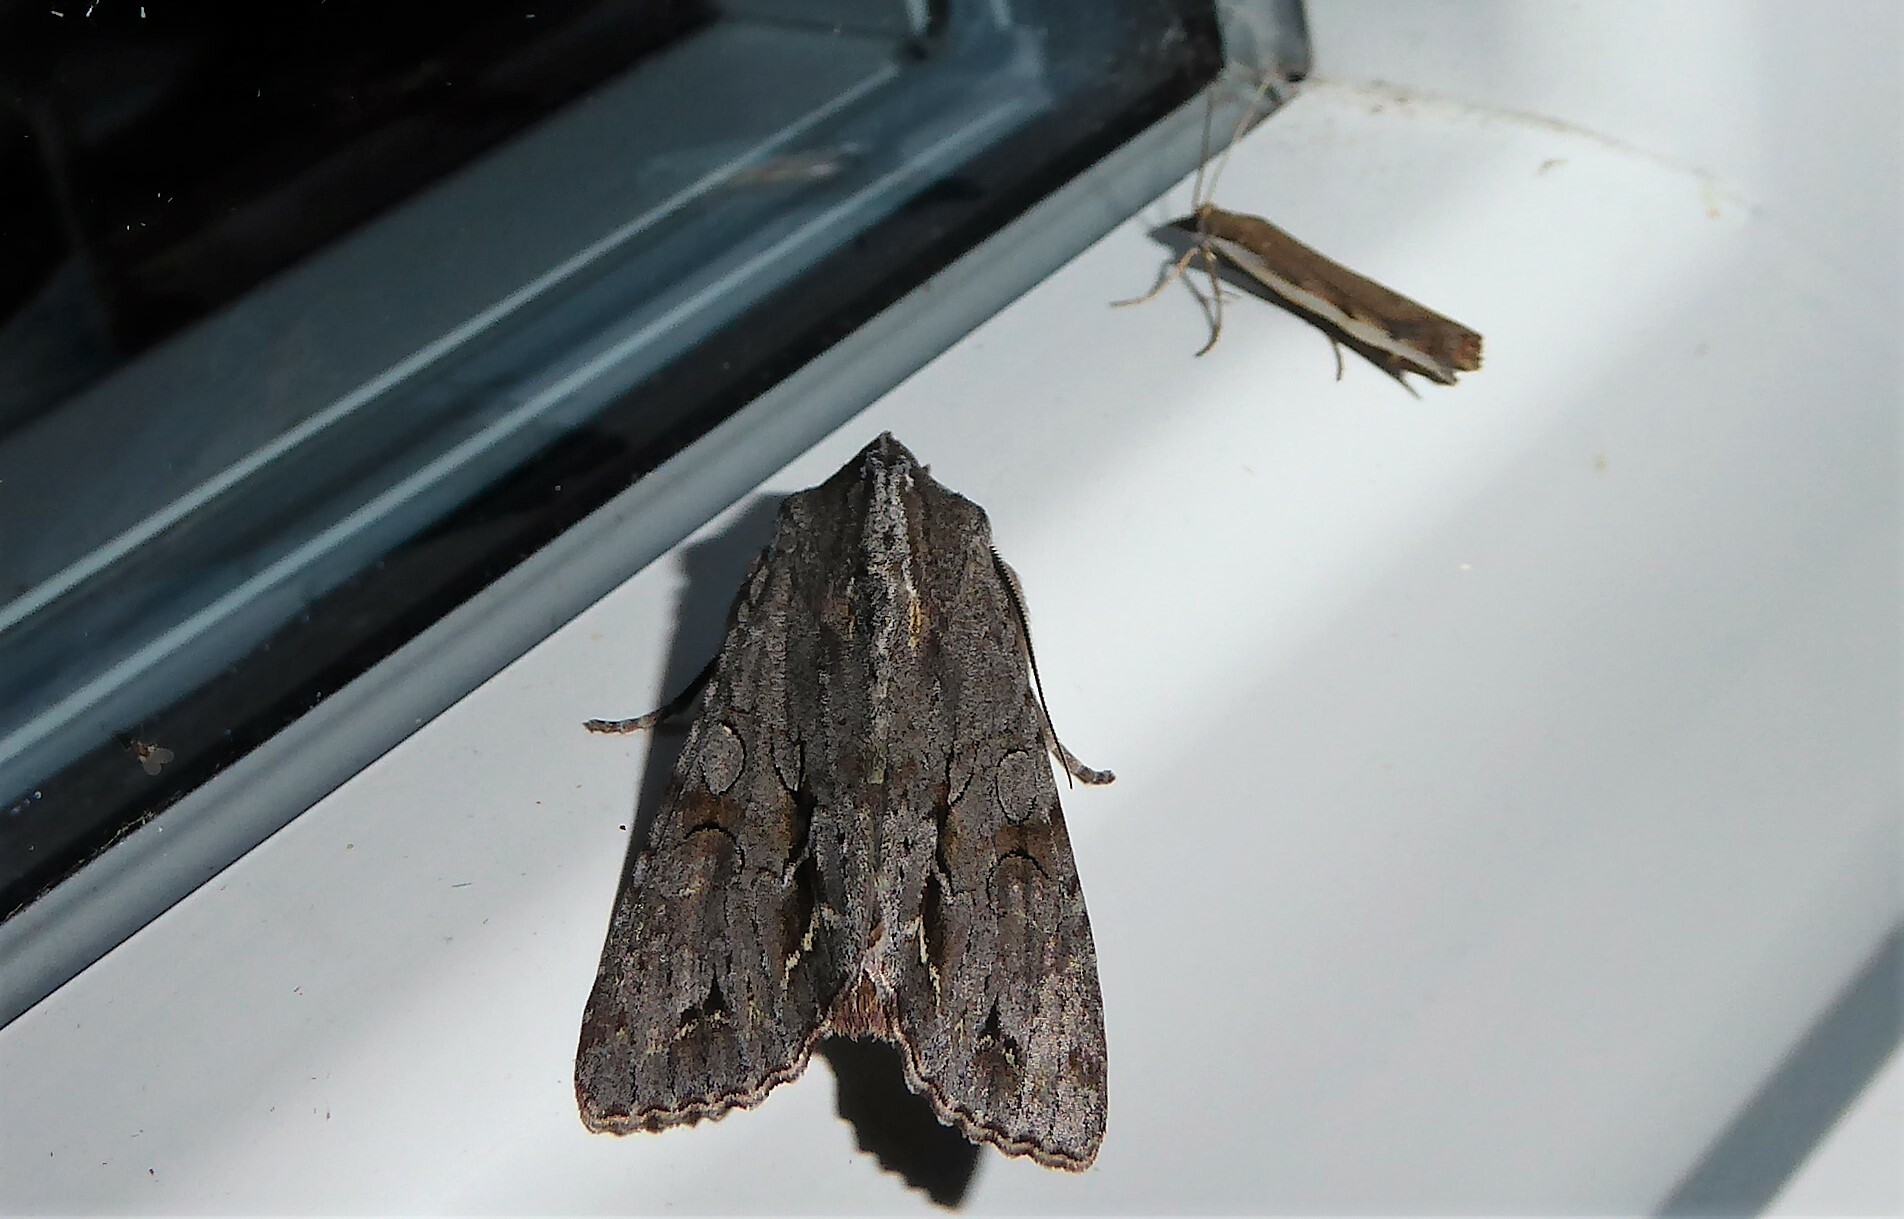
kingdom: Animalia
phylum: Arthropoda
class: Insecta
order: Lepidoptera
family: Noctuidae
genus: Ichneutica
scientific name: Ichneutica
